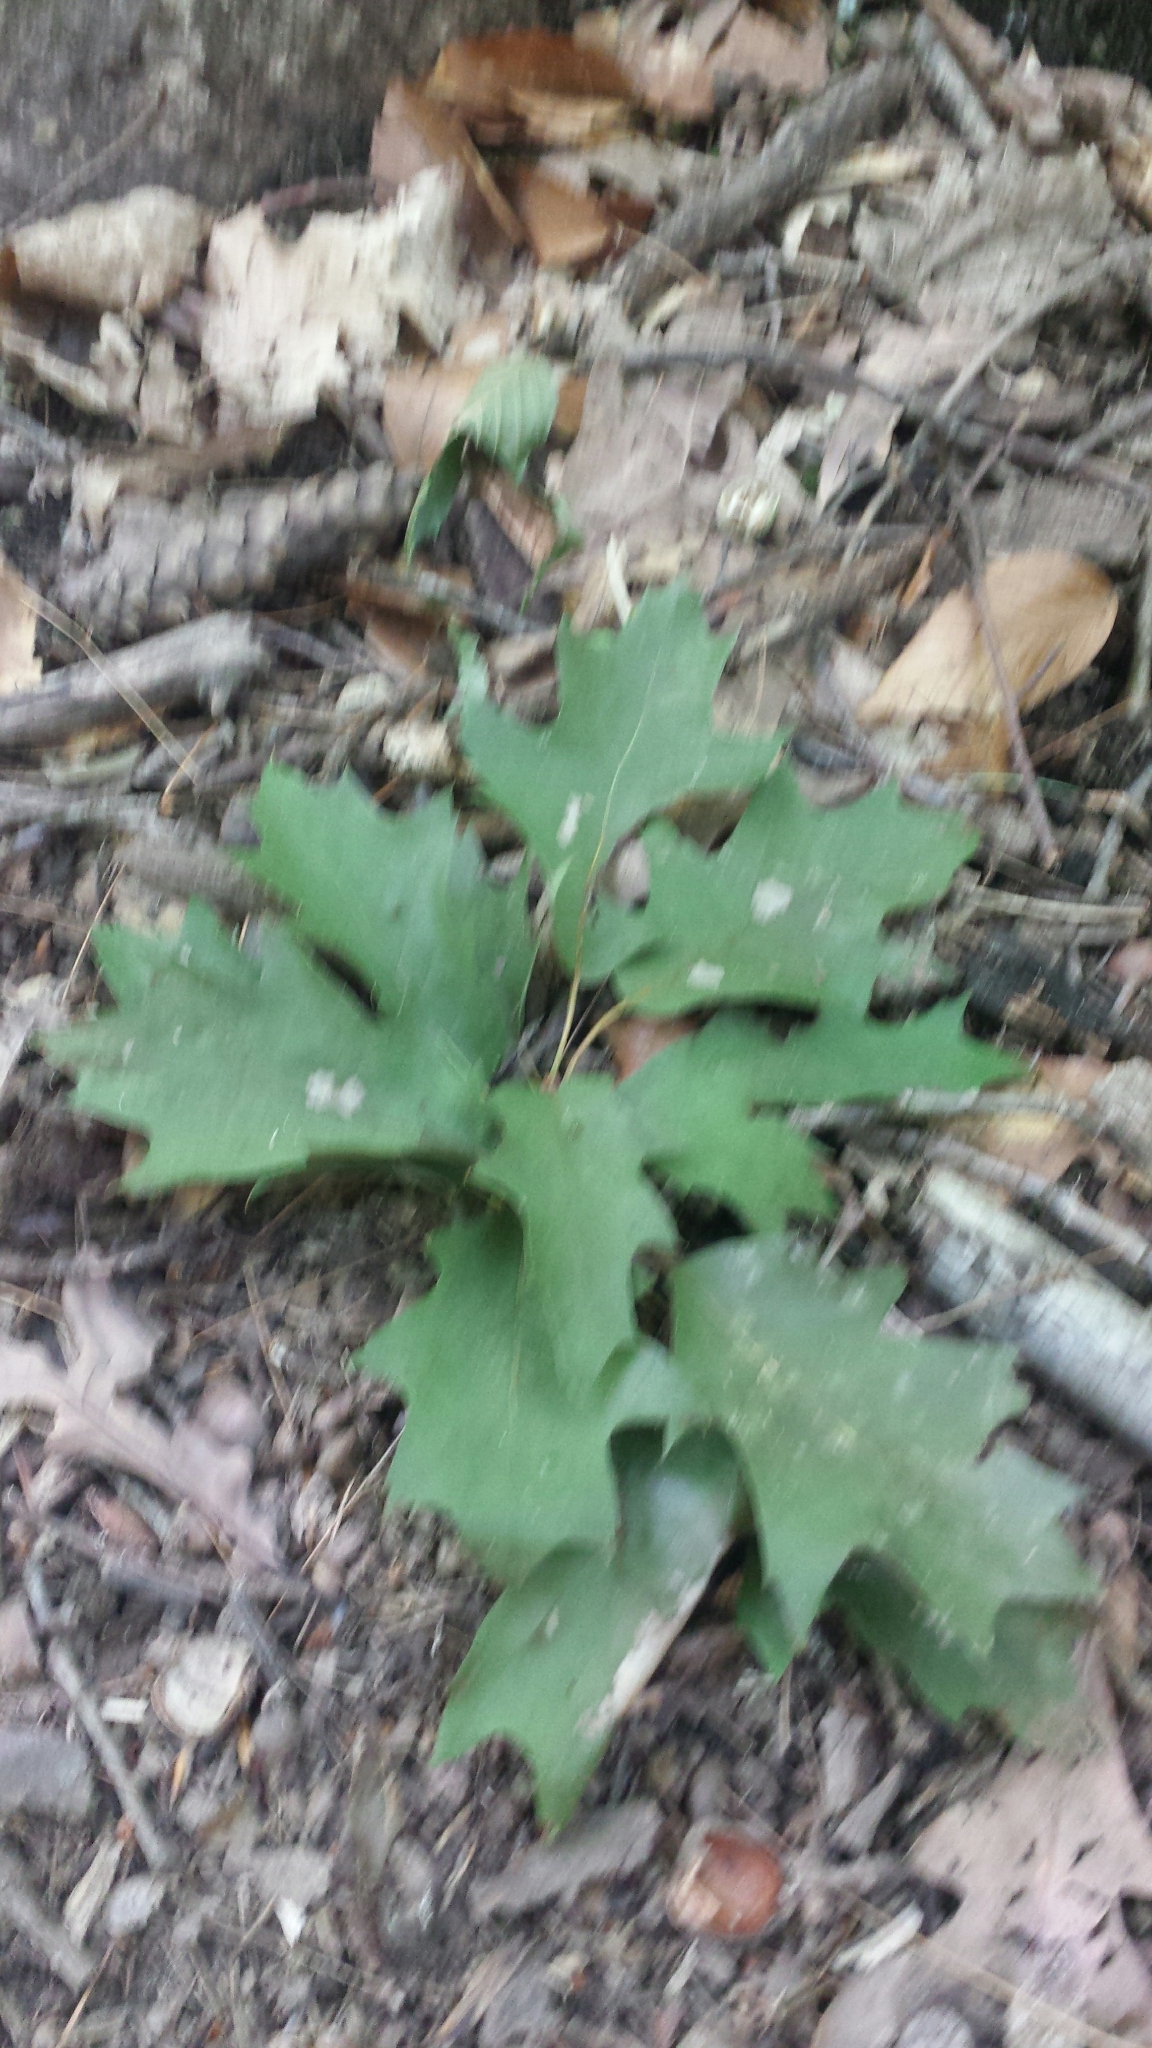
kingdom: Plantae
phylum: Tracheophyta
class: Magnoliopsida
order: Fagales
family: Fagaceae
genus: Quercus
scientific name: Quercus rubra
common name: Red oak
